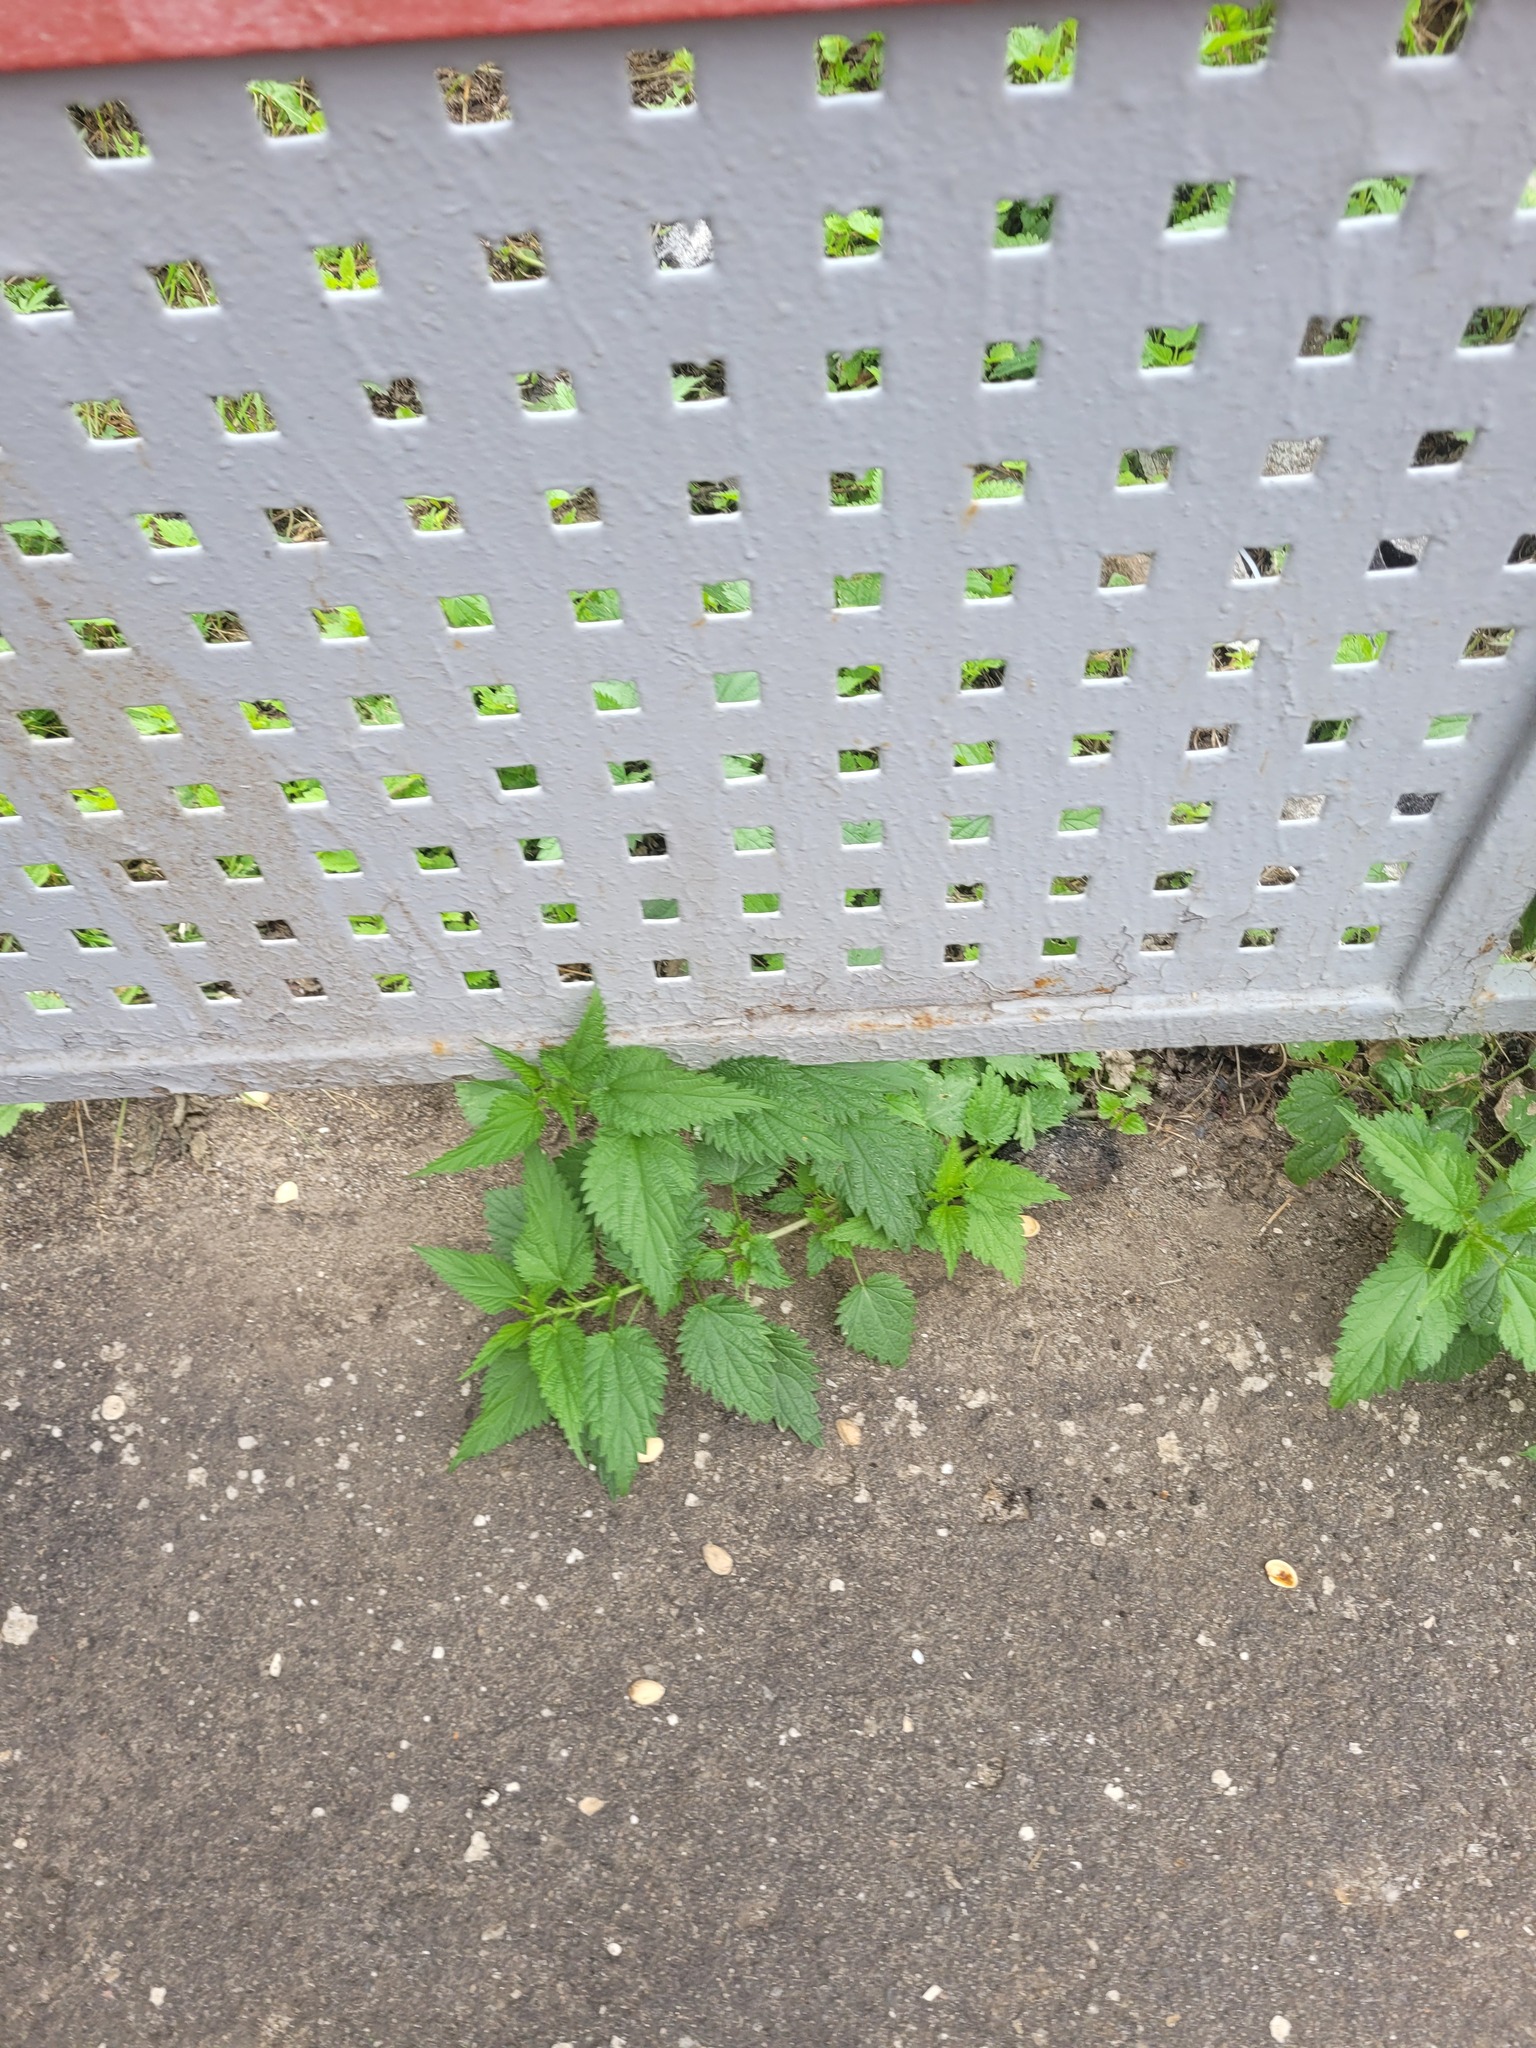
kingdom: Plantae
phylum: Tracheophyta
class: Magnoliopsida
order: Rosales
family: Urticaceae
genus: Urtica
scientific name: Urtica dioica
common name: Common nettle
